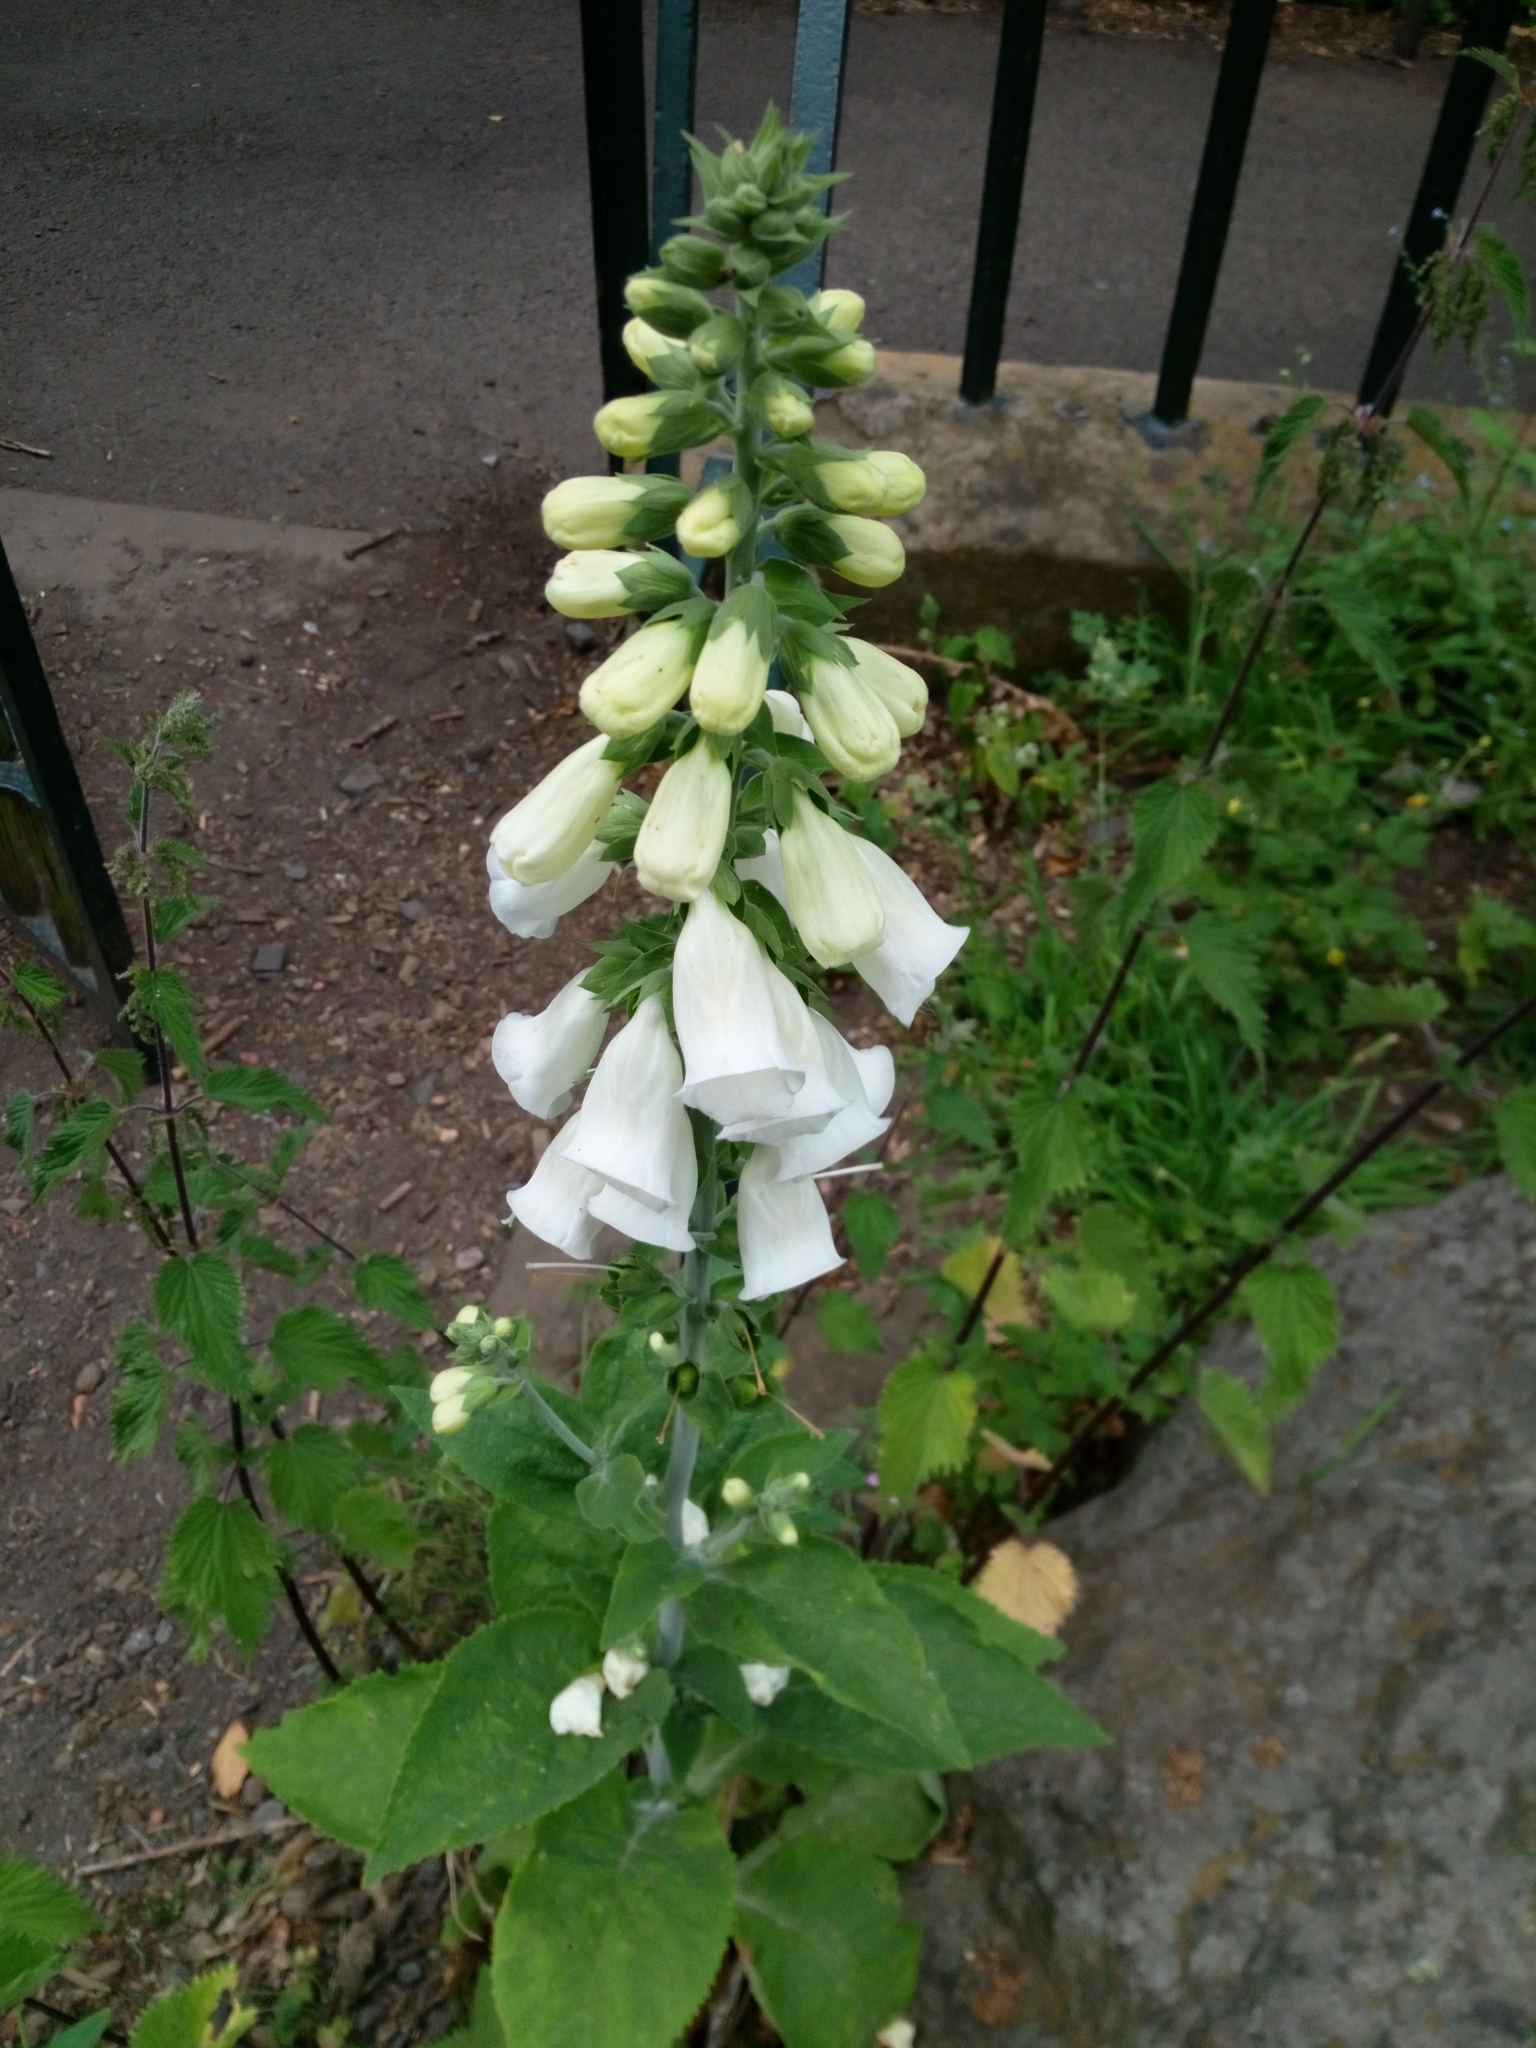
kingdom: Plantae
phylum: Tracheophyta
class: Magnoliopsida
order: Lamiales
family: Plantaginaceae
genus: Digitalis
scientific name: Digitalis purpurea
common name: Foxglove
